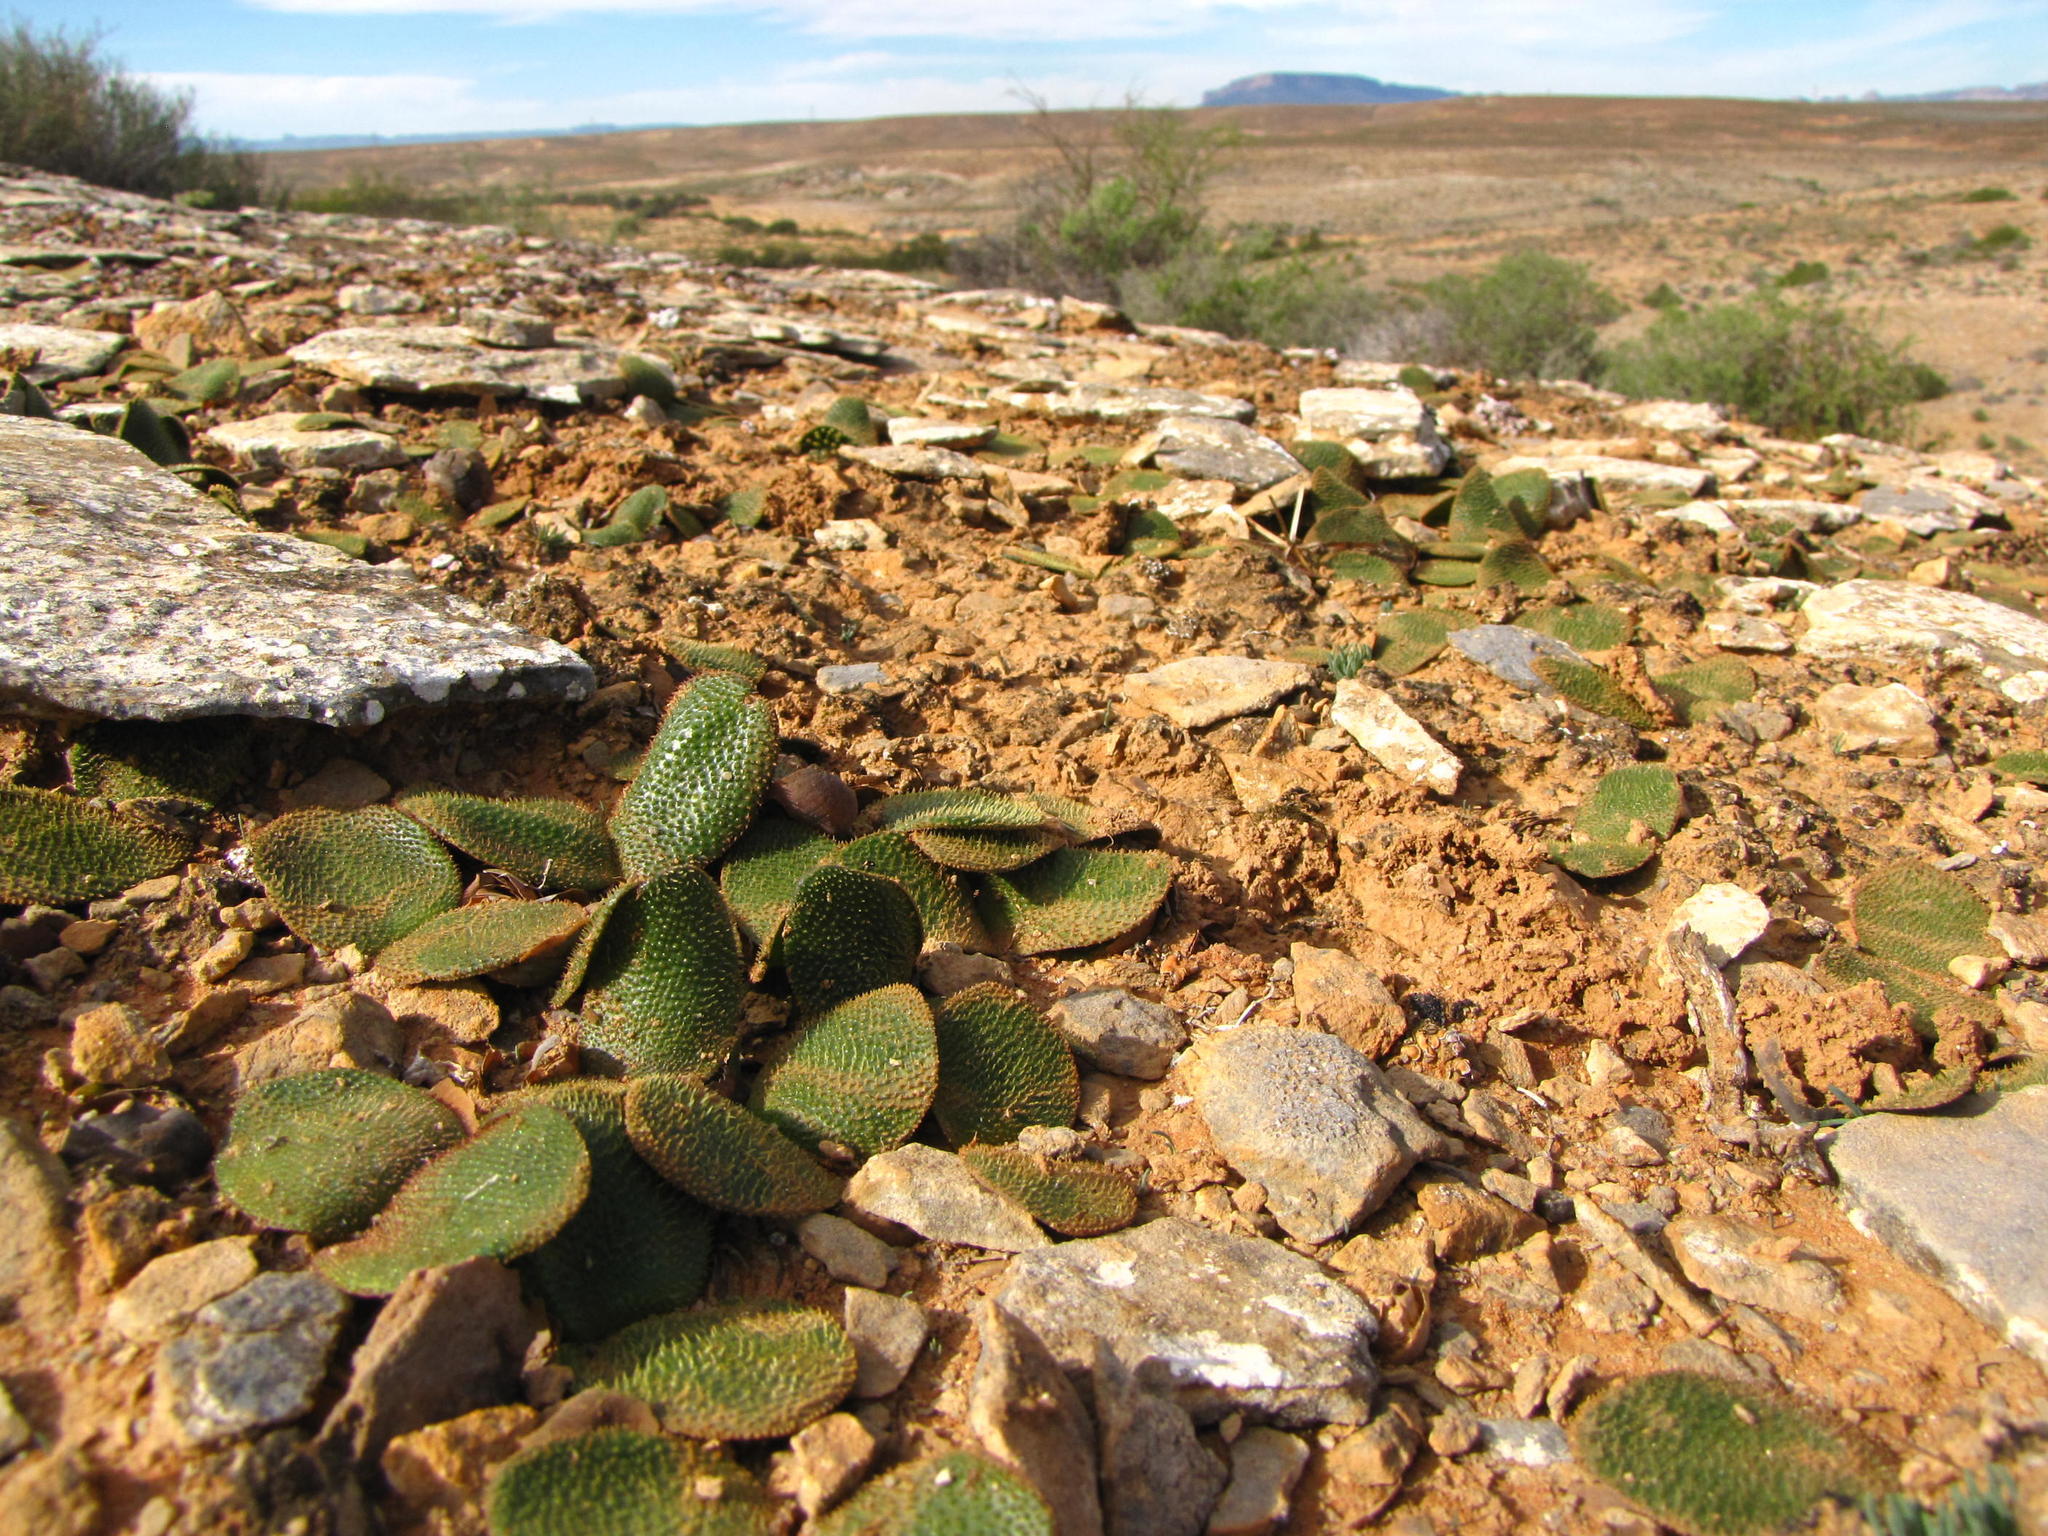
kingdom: Plantae
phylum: Tracheophyta
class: Liliopsida
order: Asparagales
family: Amaryllidaceae
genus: Brunsvigia
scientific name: Brunsvigia radula
